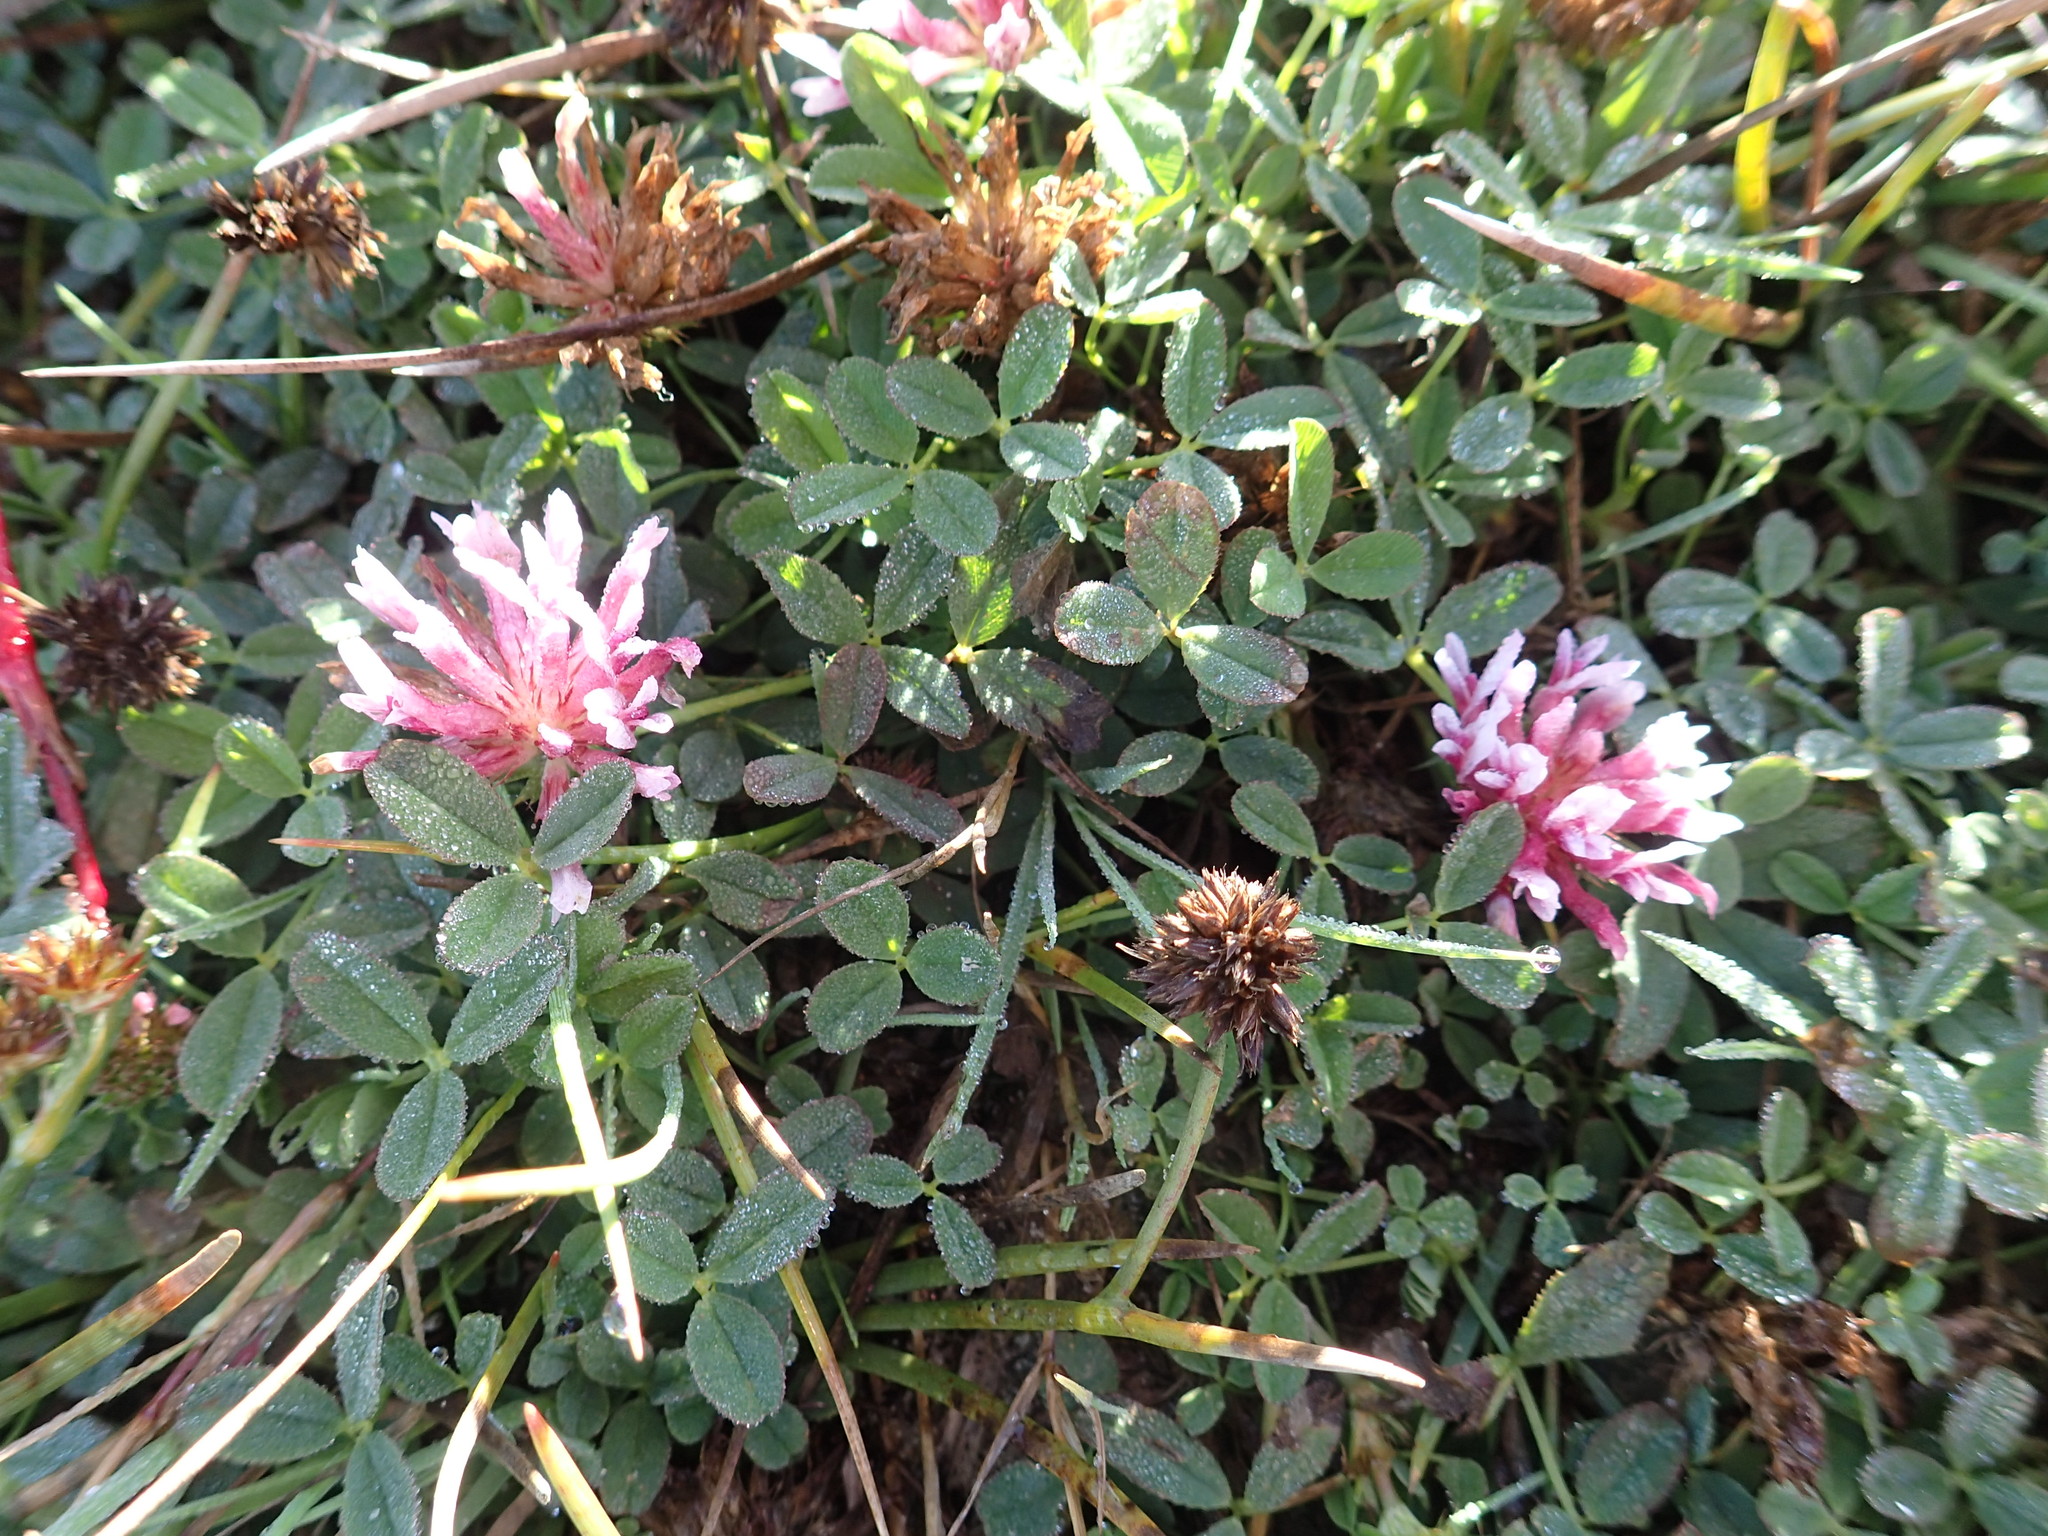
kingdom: Plantae
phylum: Tracheophyta
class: Magnoliopsida
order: Fabales
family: Fabaceae
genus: Trifolium
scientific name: Trifolium wormskioldii
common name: Springbank clover
